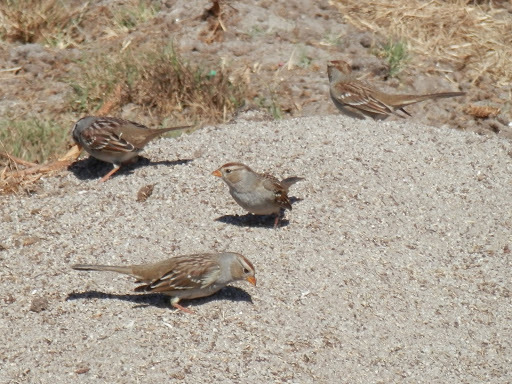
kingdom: Animalia
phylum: Chordata
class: Aves
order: Passeriformes
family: Passerellidae
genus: Zonotrichia
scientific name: Zonotrichia leucophrys
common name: White-crowned sparrow
